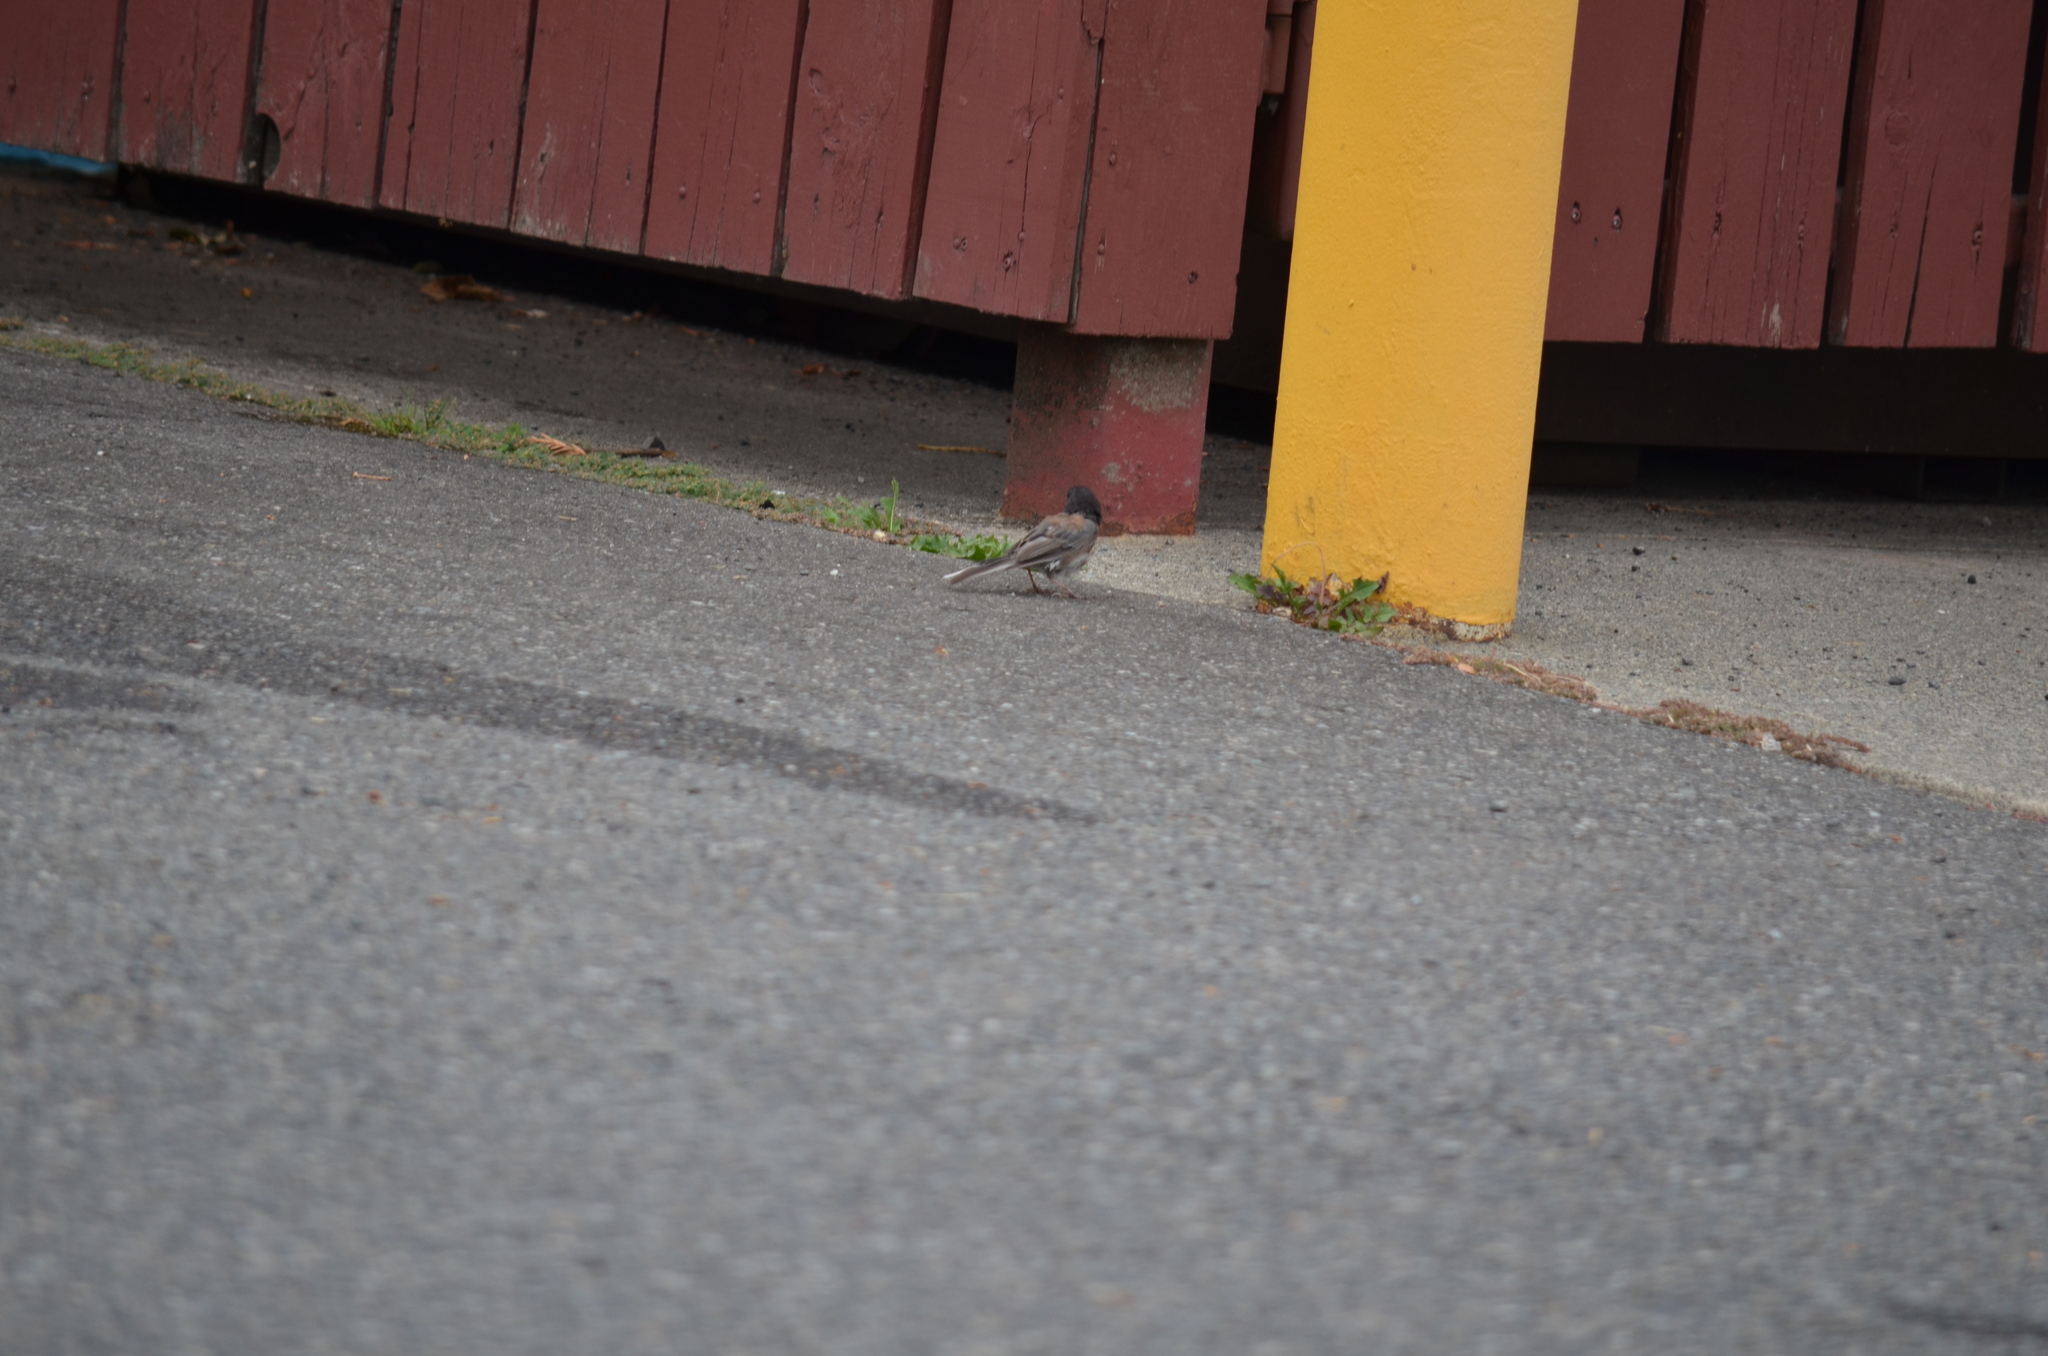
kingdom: Animalia
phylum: Chordata
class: Aves
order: Passeriformes
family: Passerellidae
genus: Junco
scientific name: Junco hyemalis
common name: Dark-eyed junco
